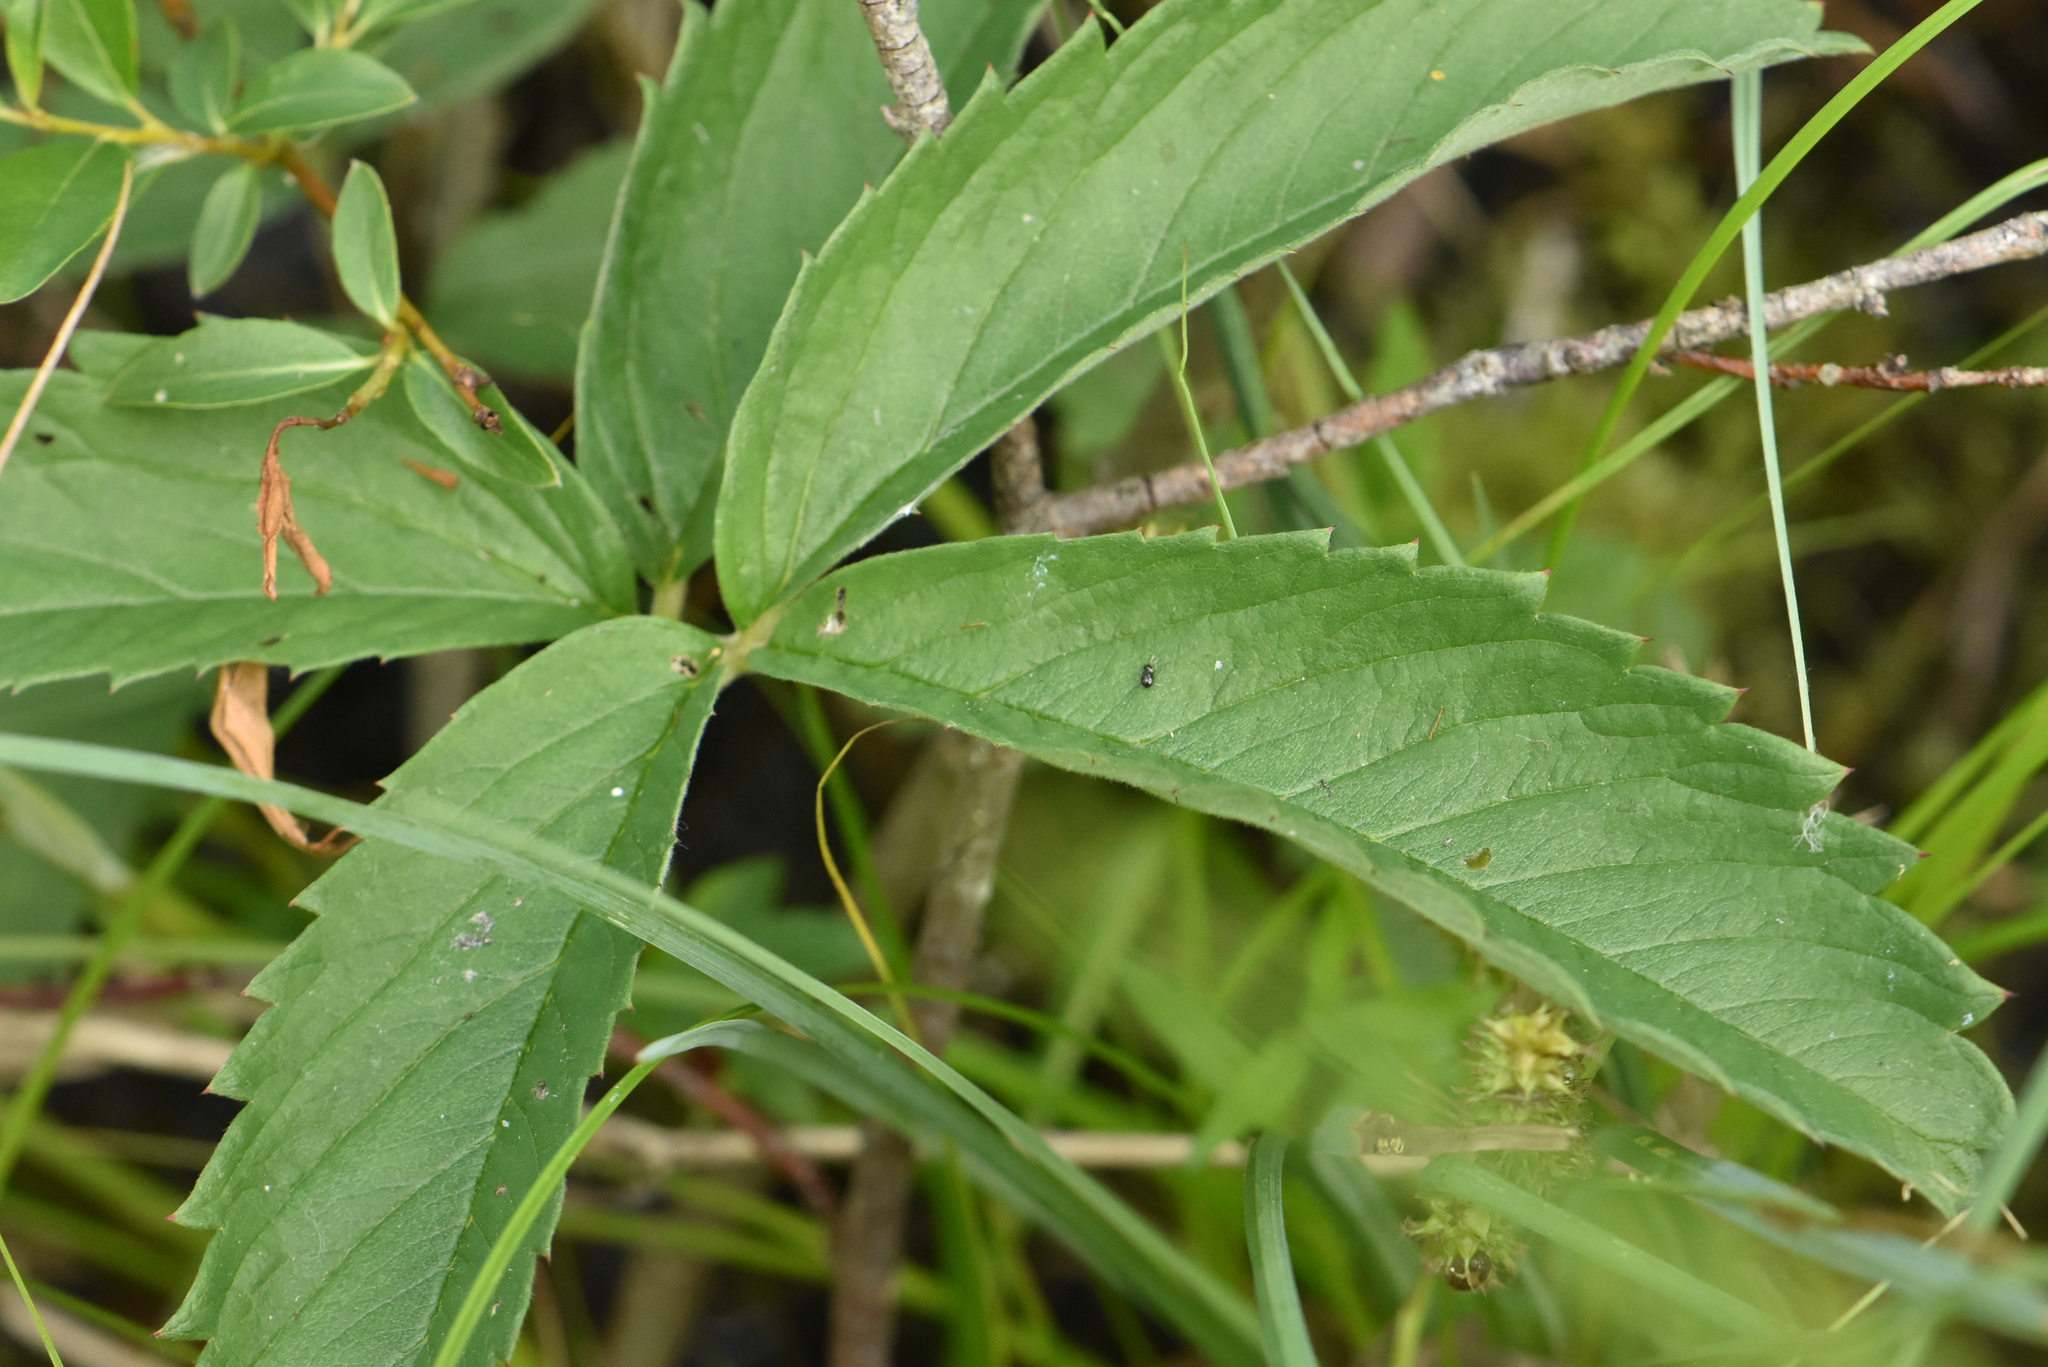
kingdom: Plantae
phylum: Tracheophyta
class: Magnoliopsida
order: Rosales
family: Rosaceae
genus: Comarum
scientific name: Comarum palustre
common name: Marsh cinquefoil
